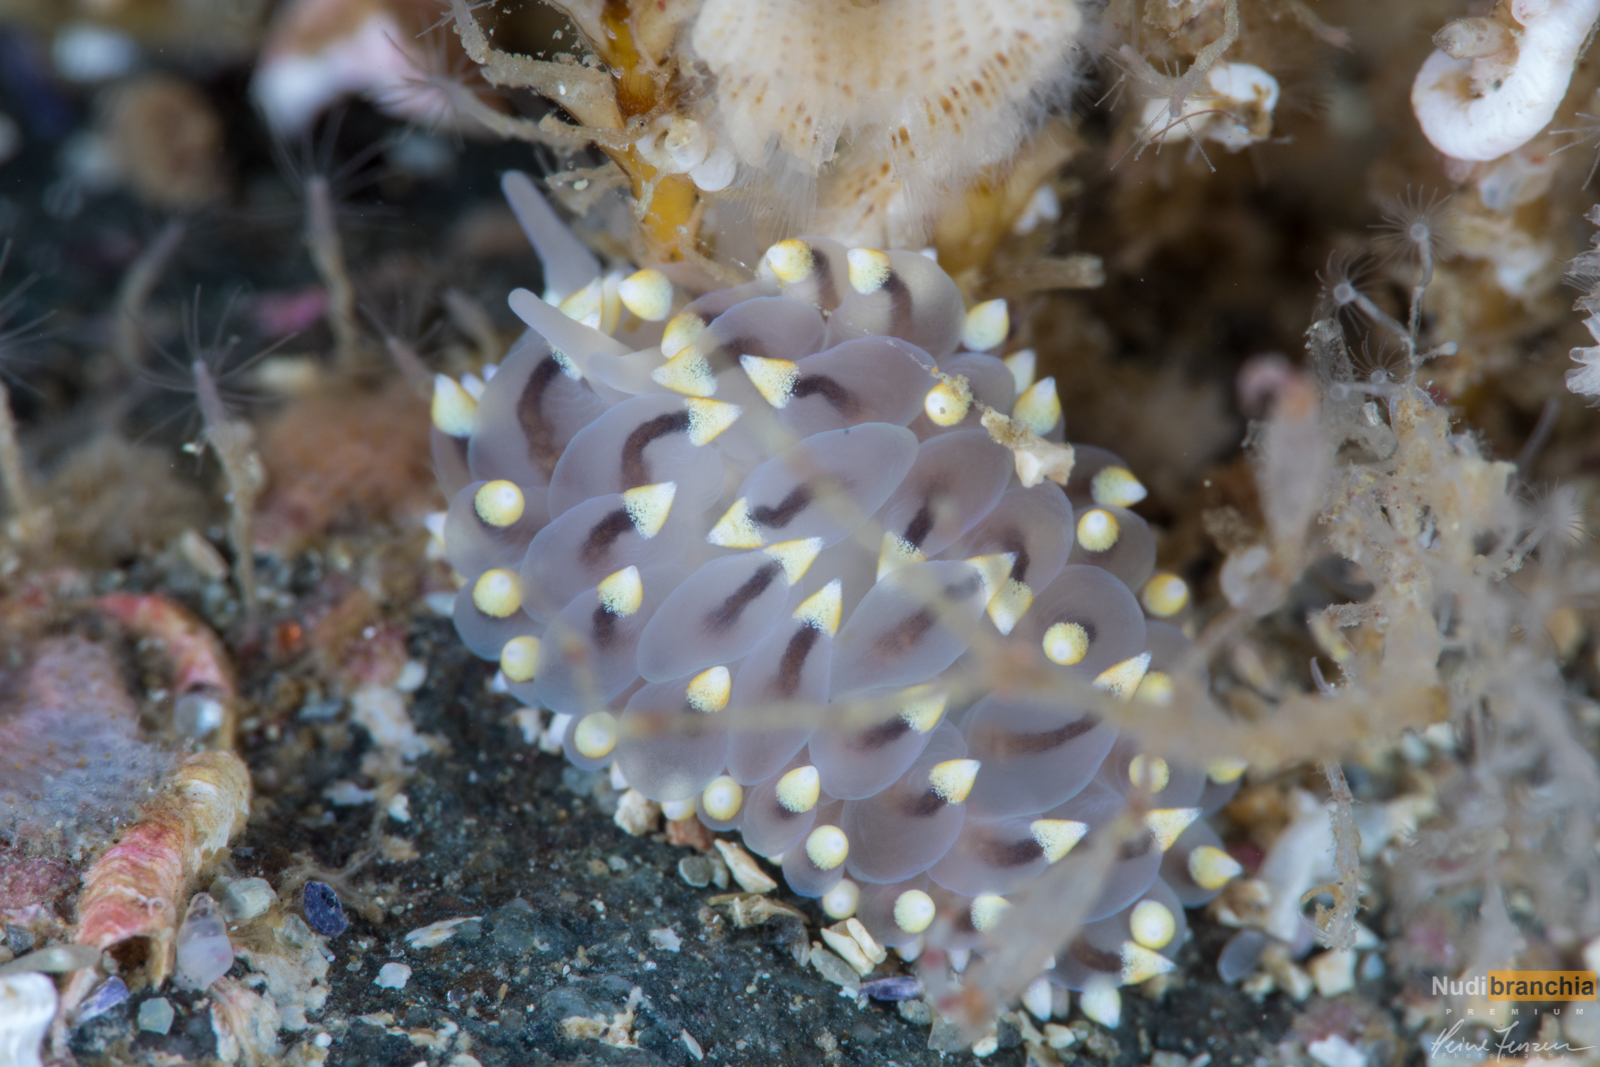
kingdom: Animalia
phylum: Mollusca
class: Gastropoda
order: Nudibranchia
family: Eubranchidae
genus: Eubranchus
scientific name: Eubranchus tricolor
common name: Painted balloon aeolis
